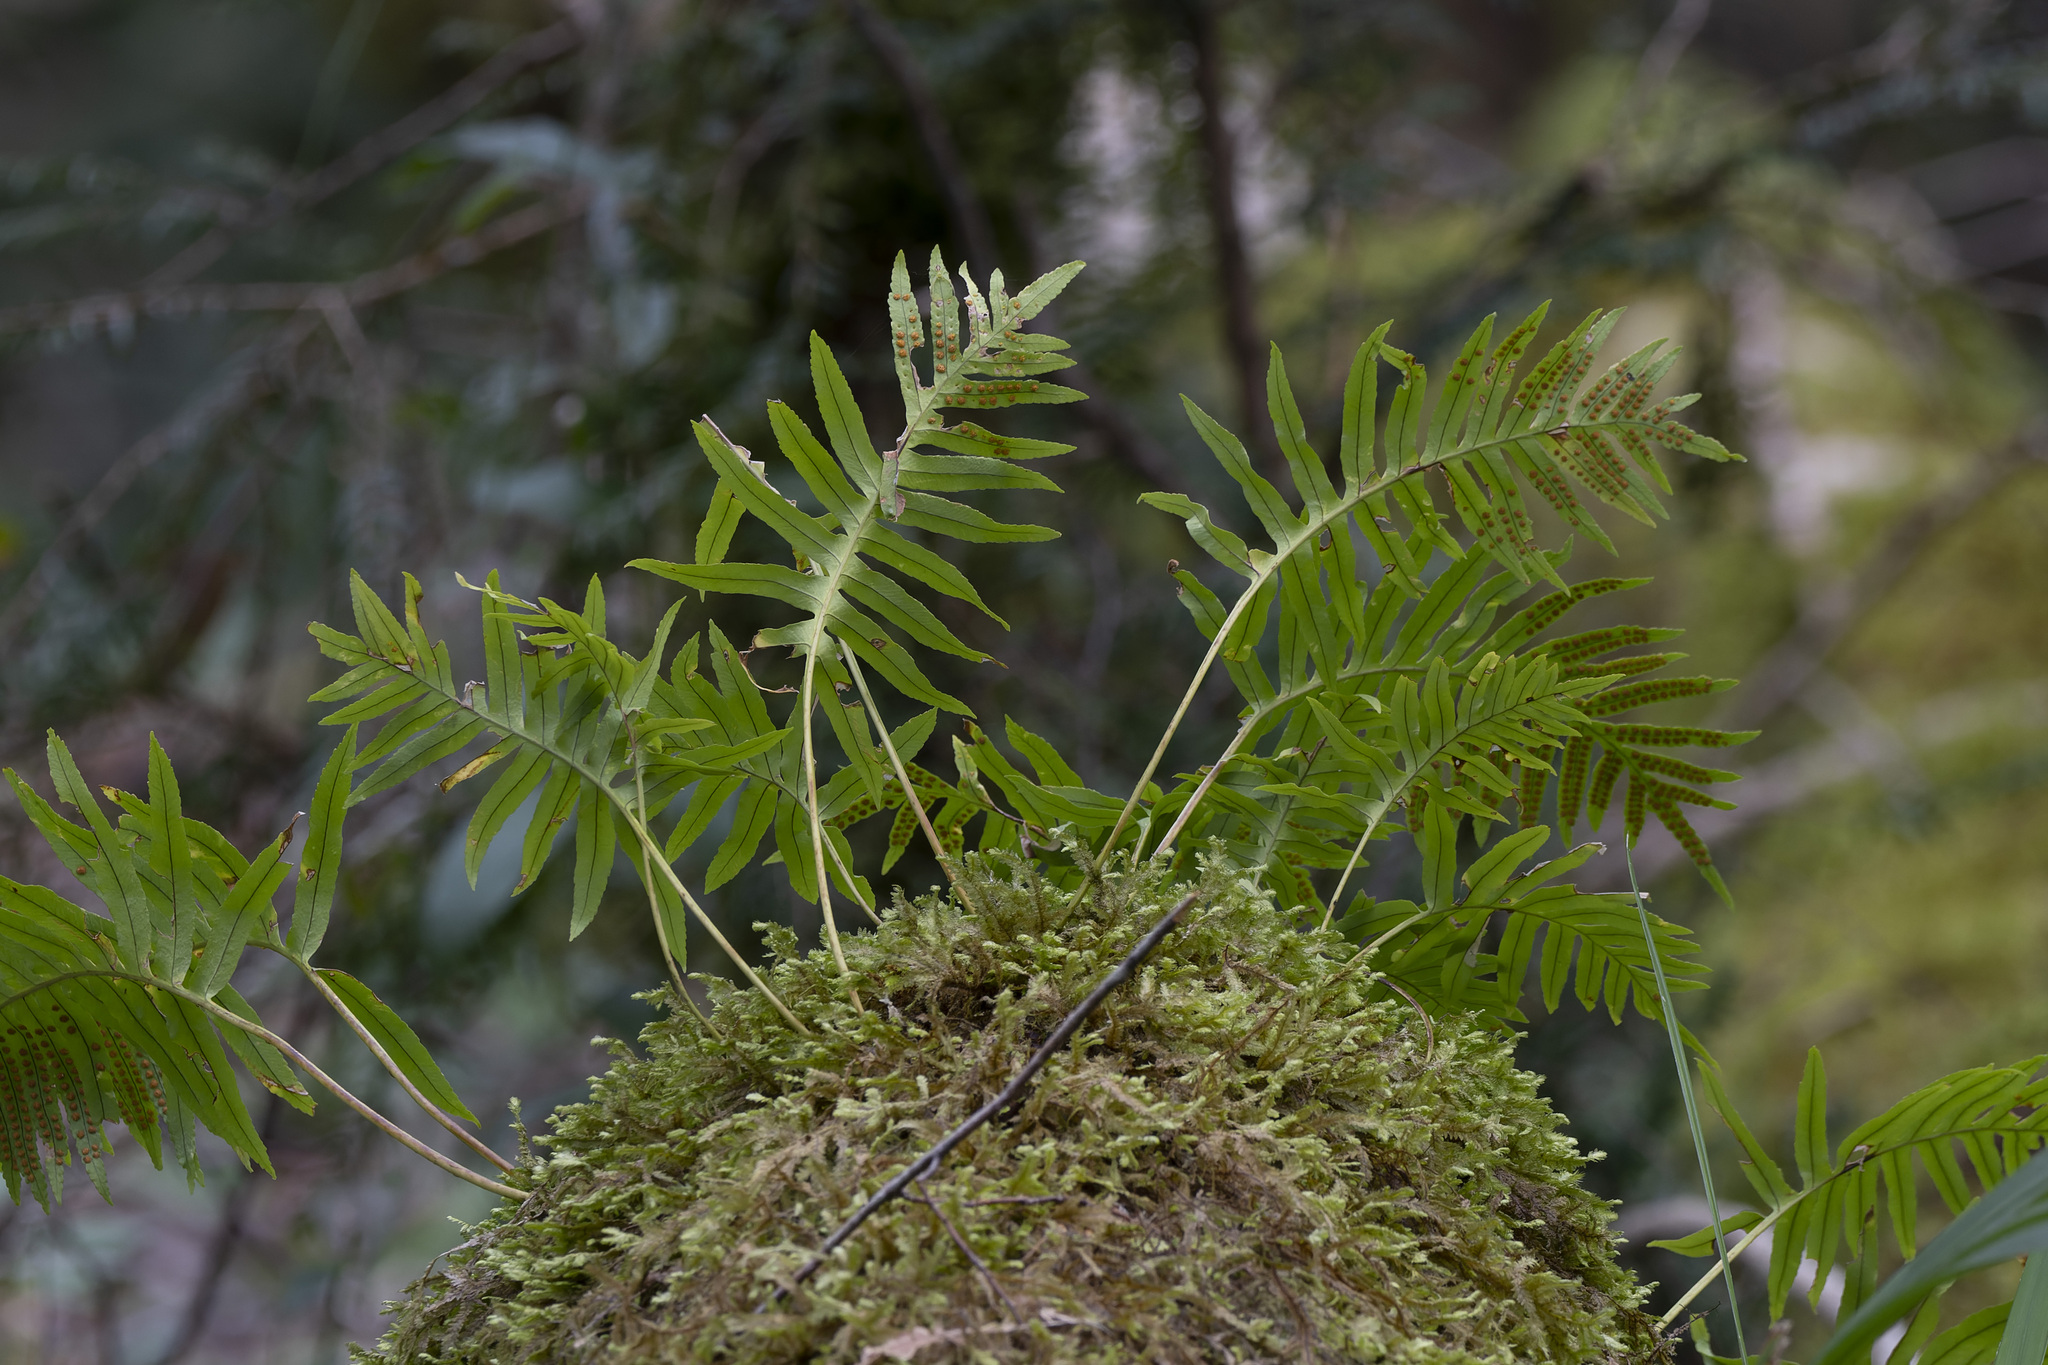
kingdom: Plantae
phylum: Tracheophyta
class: Polypodiopsida
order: Polypodiales
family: Polypodiaceae
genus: Polypodium
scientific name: Polypodium cambricum
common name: Southern polypody
